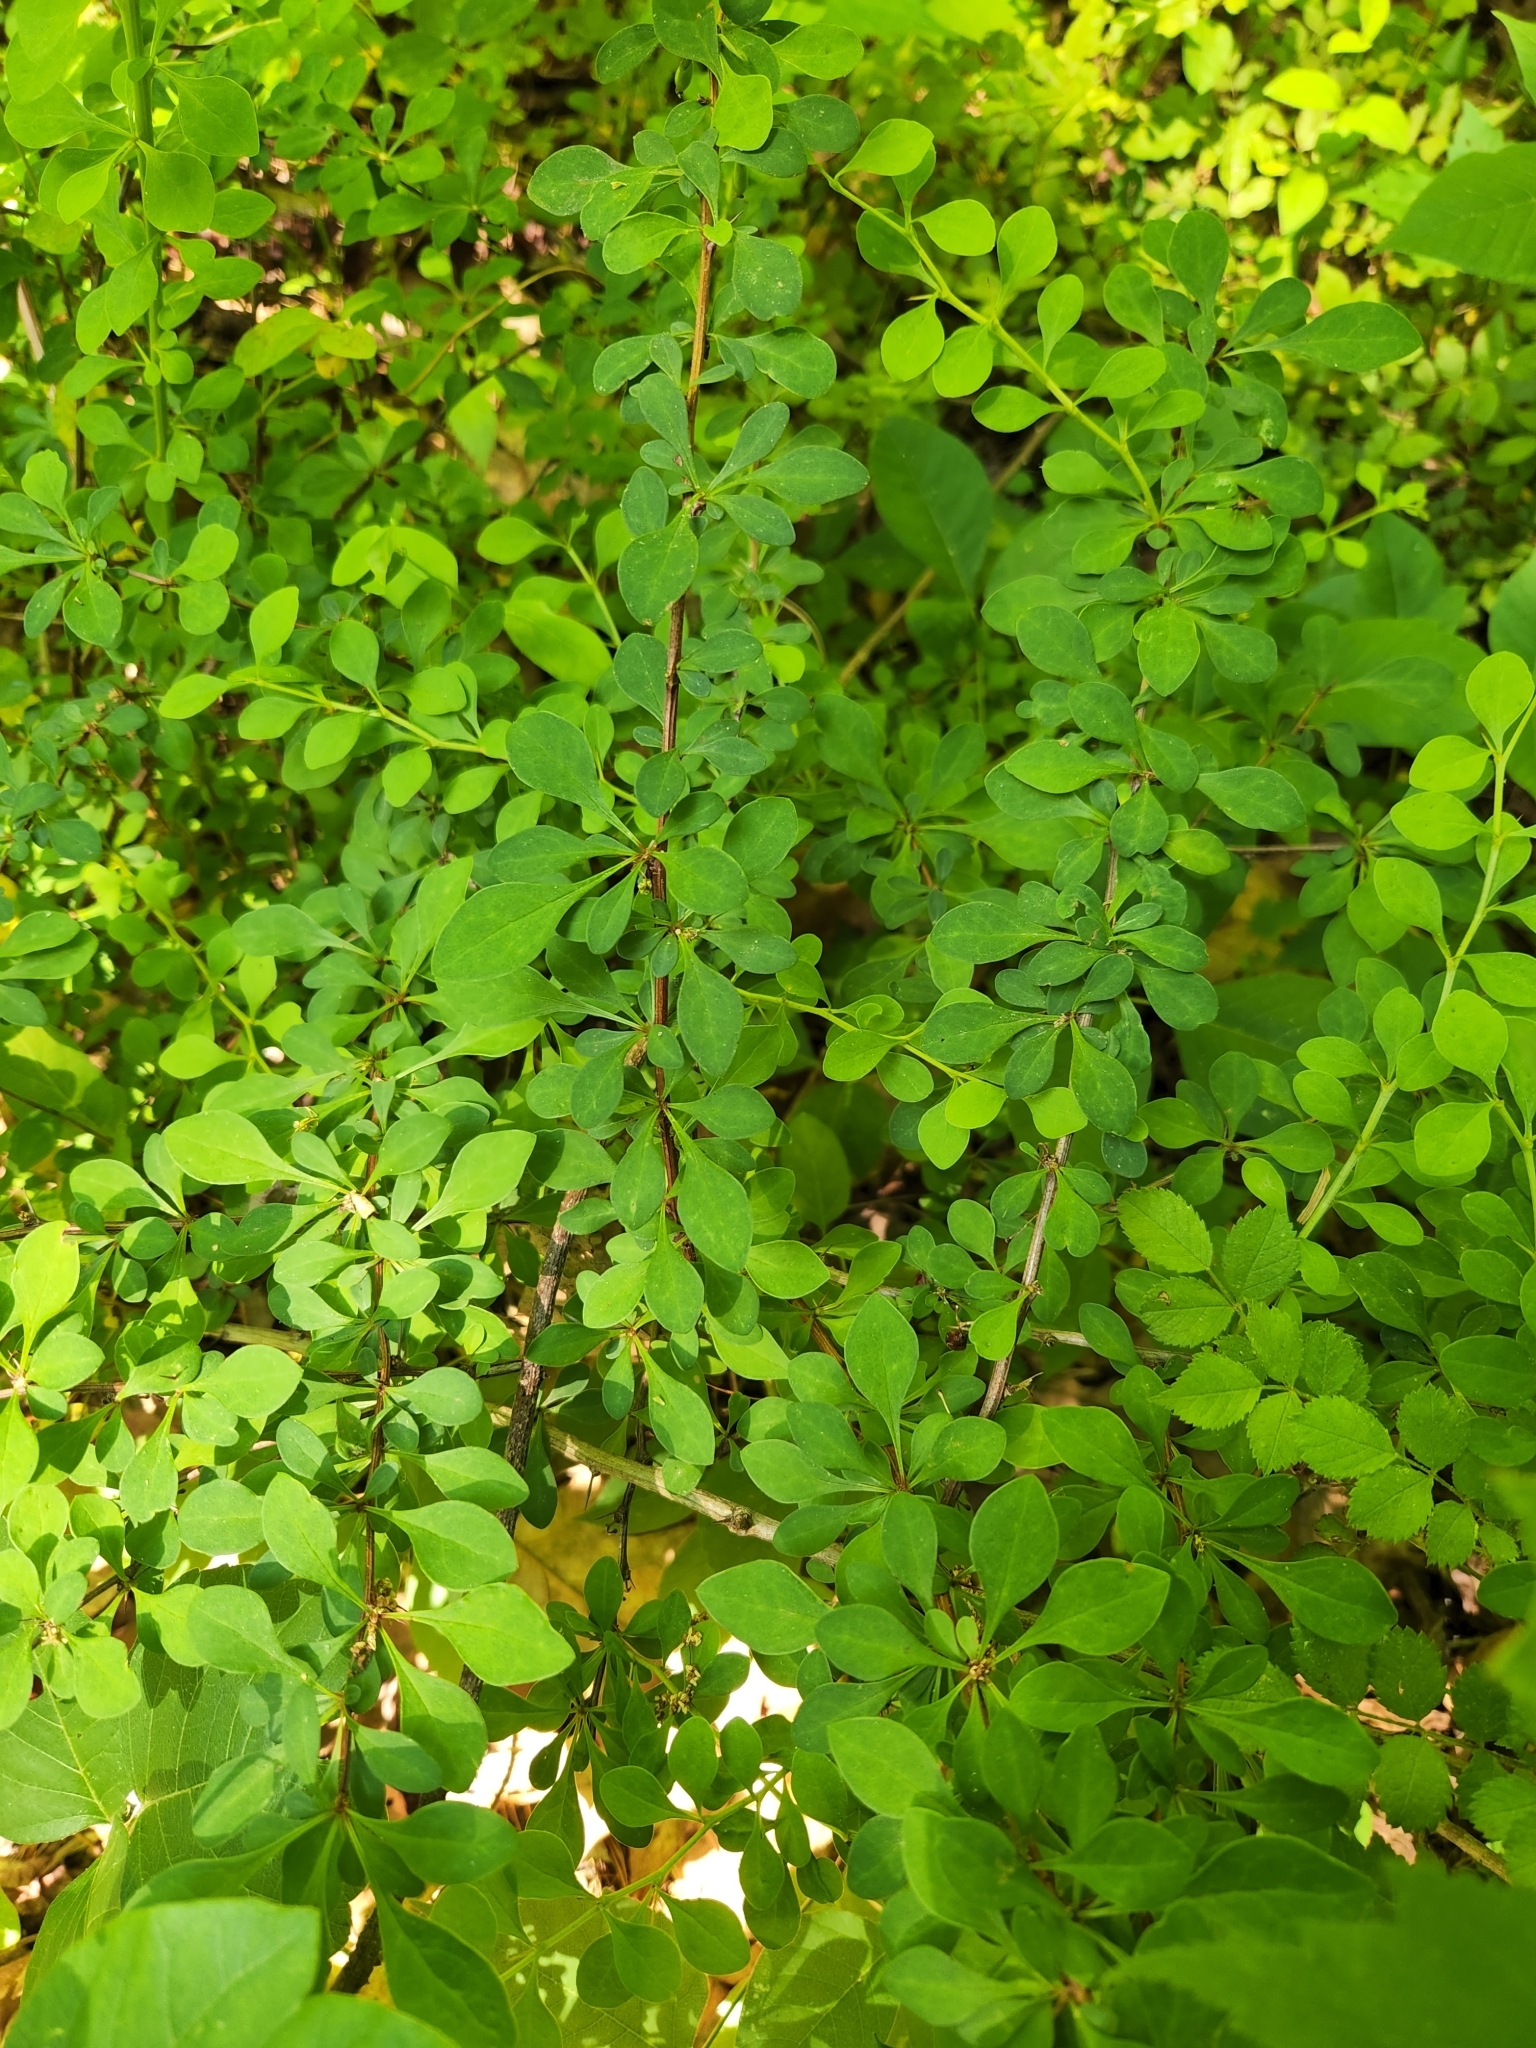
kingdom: Plantae
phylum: Tracheophyta
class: Magnoliopsida
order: Ranunculales
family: Berberidaceae
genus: Berberis
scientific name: Berberis thunbergii
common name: Japanese barberry
